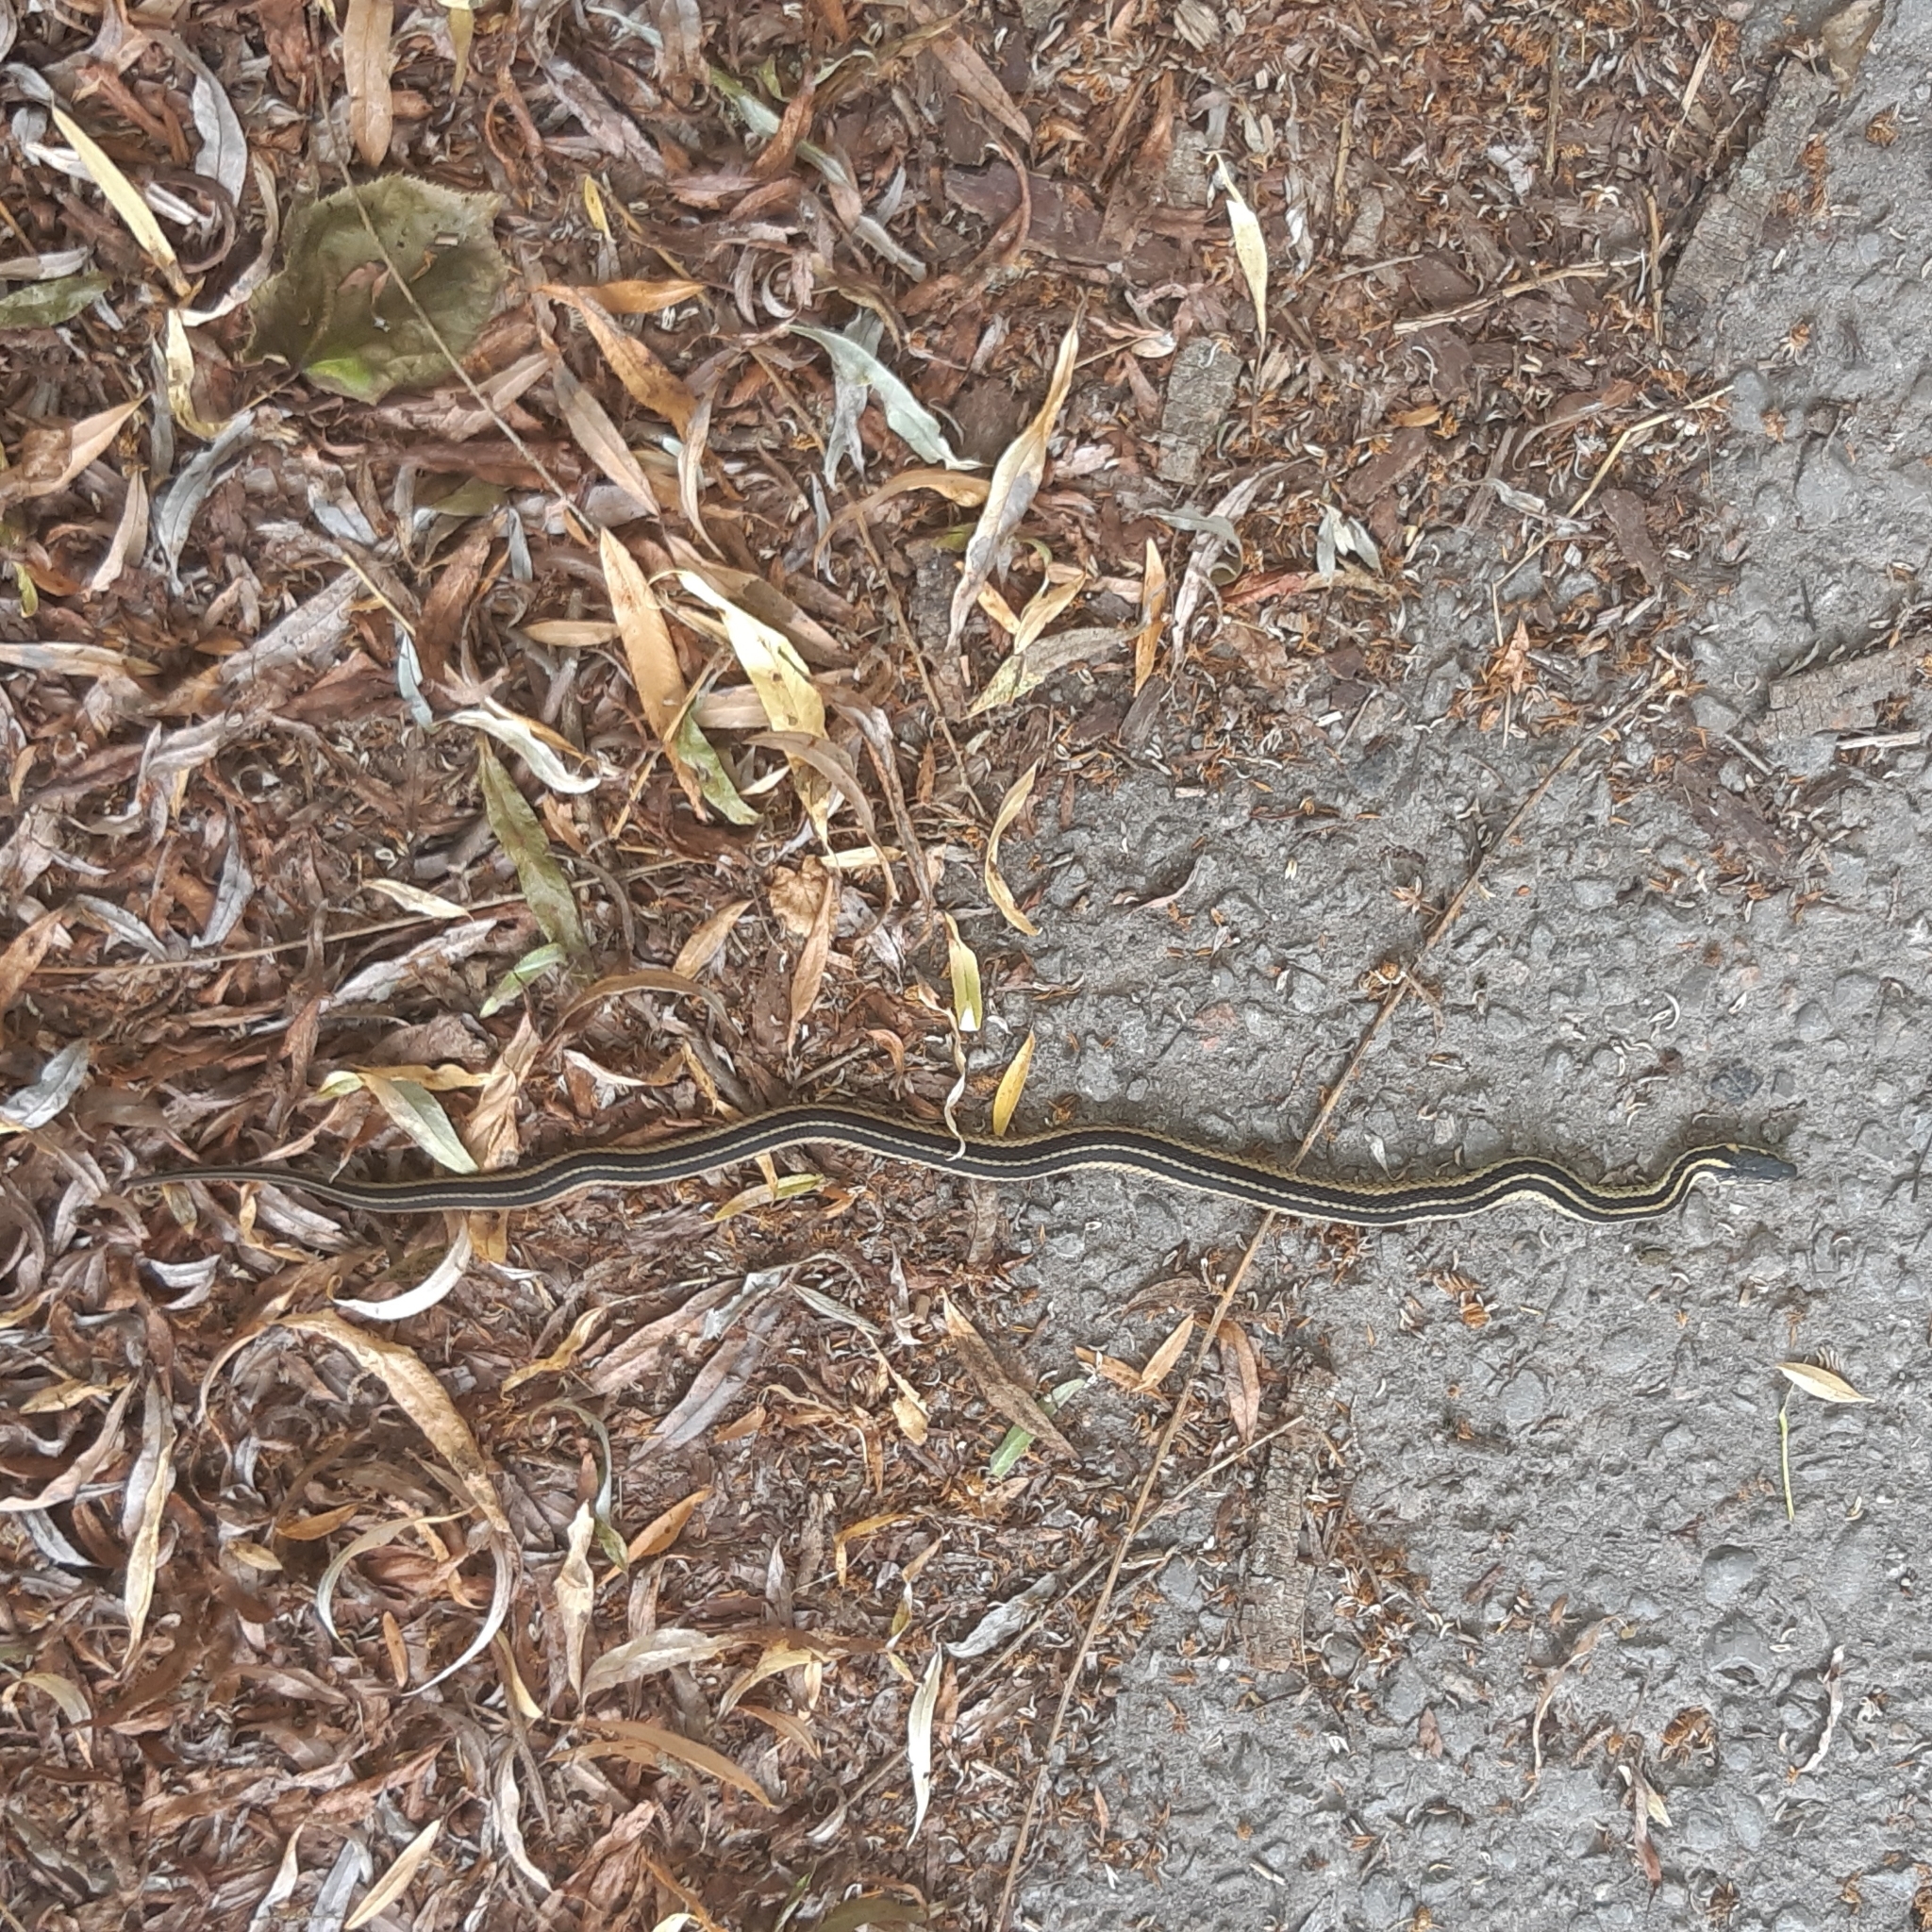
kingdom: Animalia
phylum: Chordata
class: Squamata
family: Colubridae
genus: Thamnophis
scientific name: Thamnophis sirtalis
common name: Common garter snake
